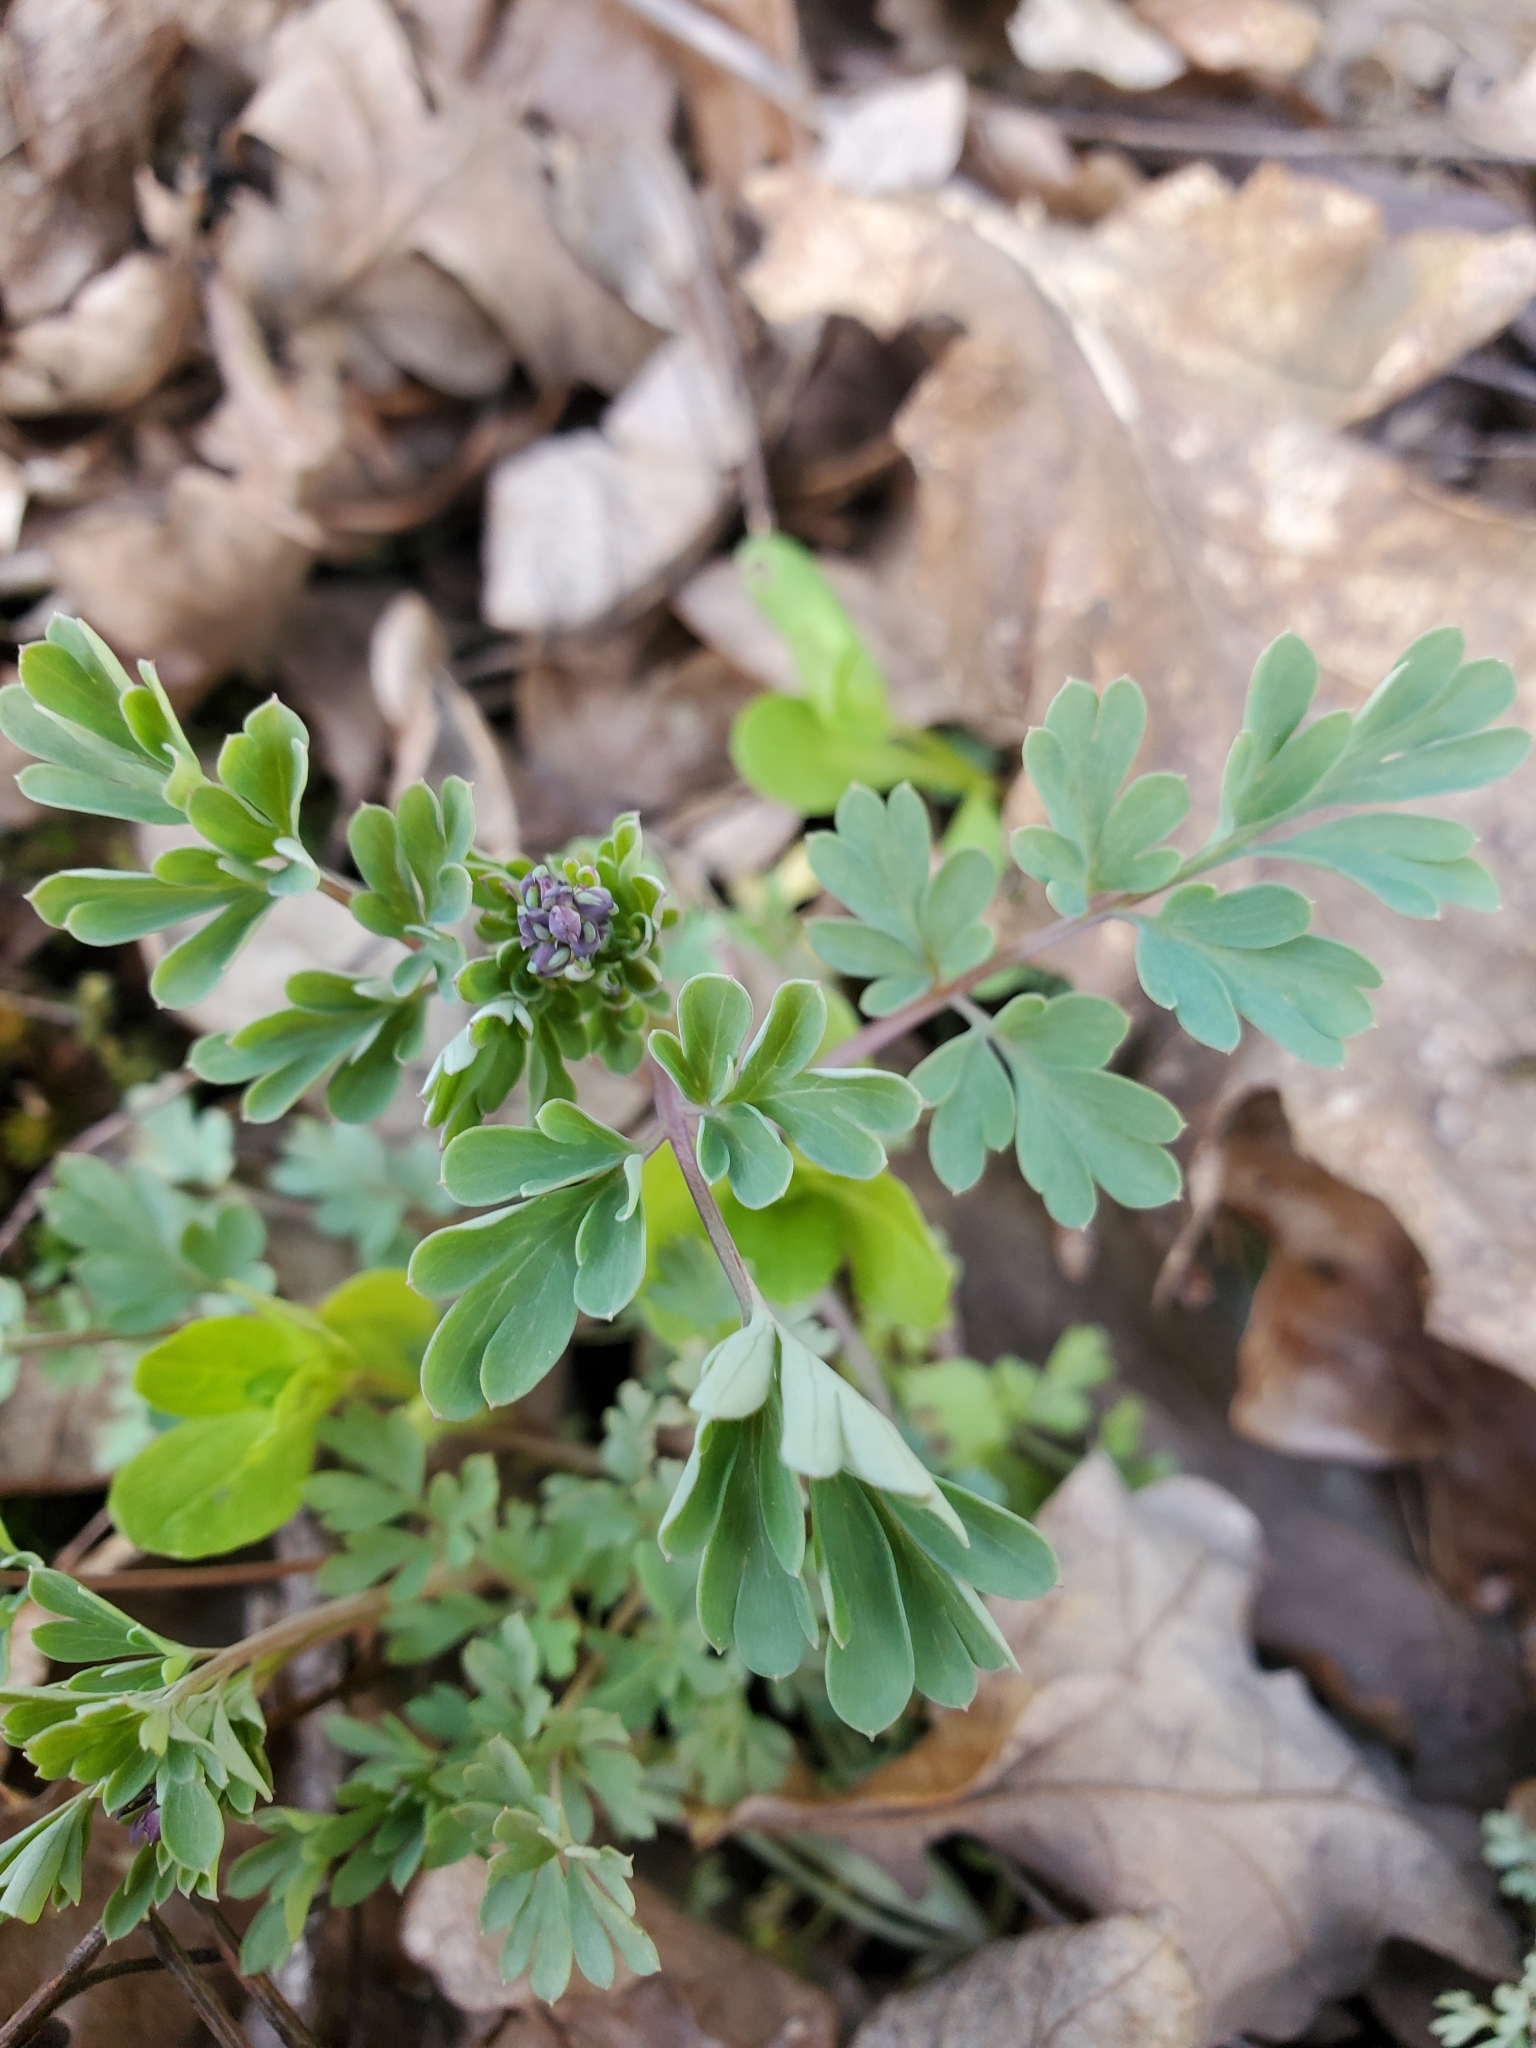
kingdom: Plantae
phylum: Tracheophyta
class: Magnoliopsida
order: Ranunculales
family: Papaveraceae
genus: Capnoides
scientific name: Capnoides sempervirens
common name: Rock harlequin
